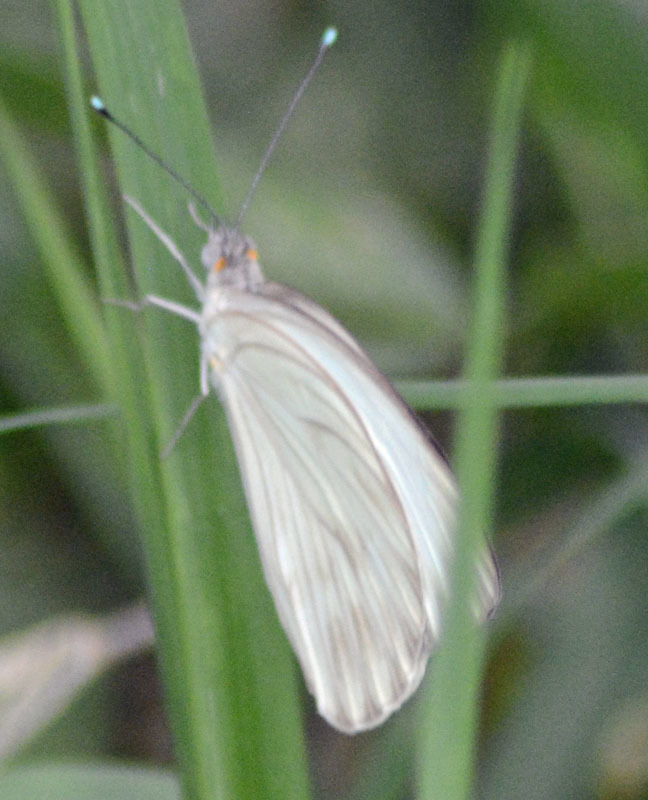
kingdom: Animalia
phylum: Arthropoda
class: Insecta
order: Lepidoptera
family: Pieridae
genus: Ascia
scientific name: Ascia monuste
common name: Great southern white
